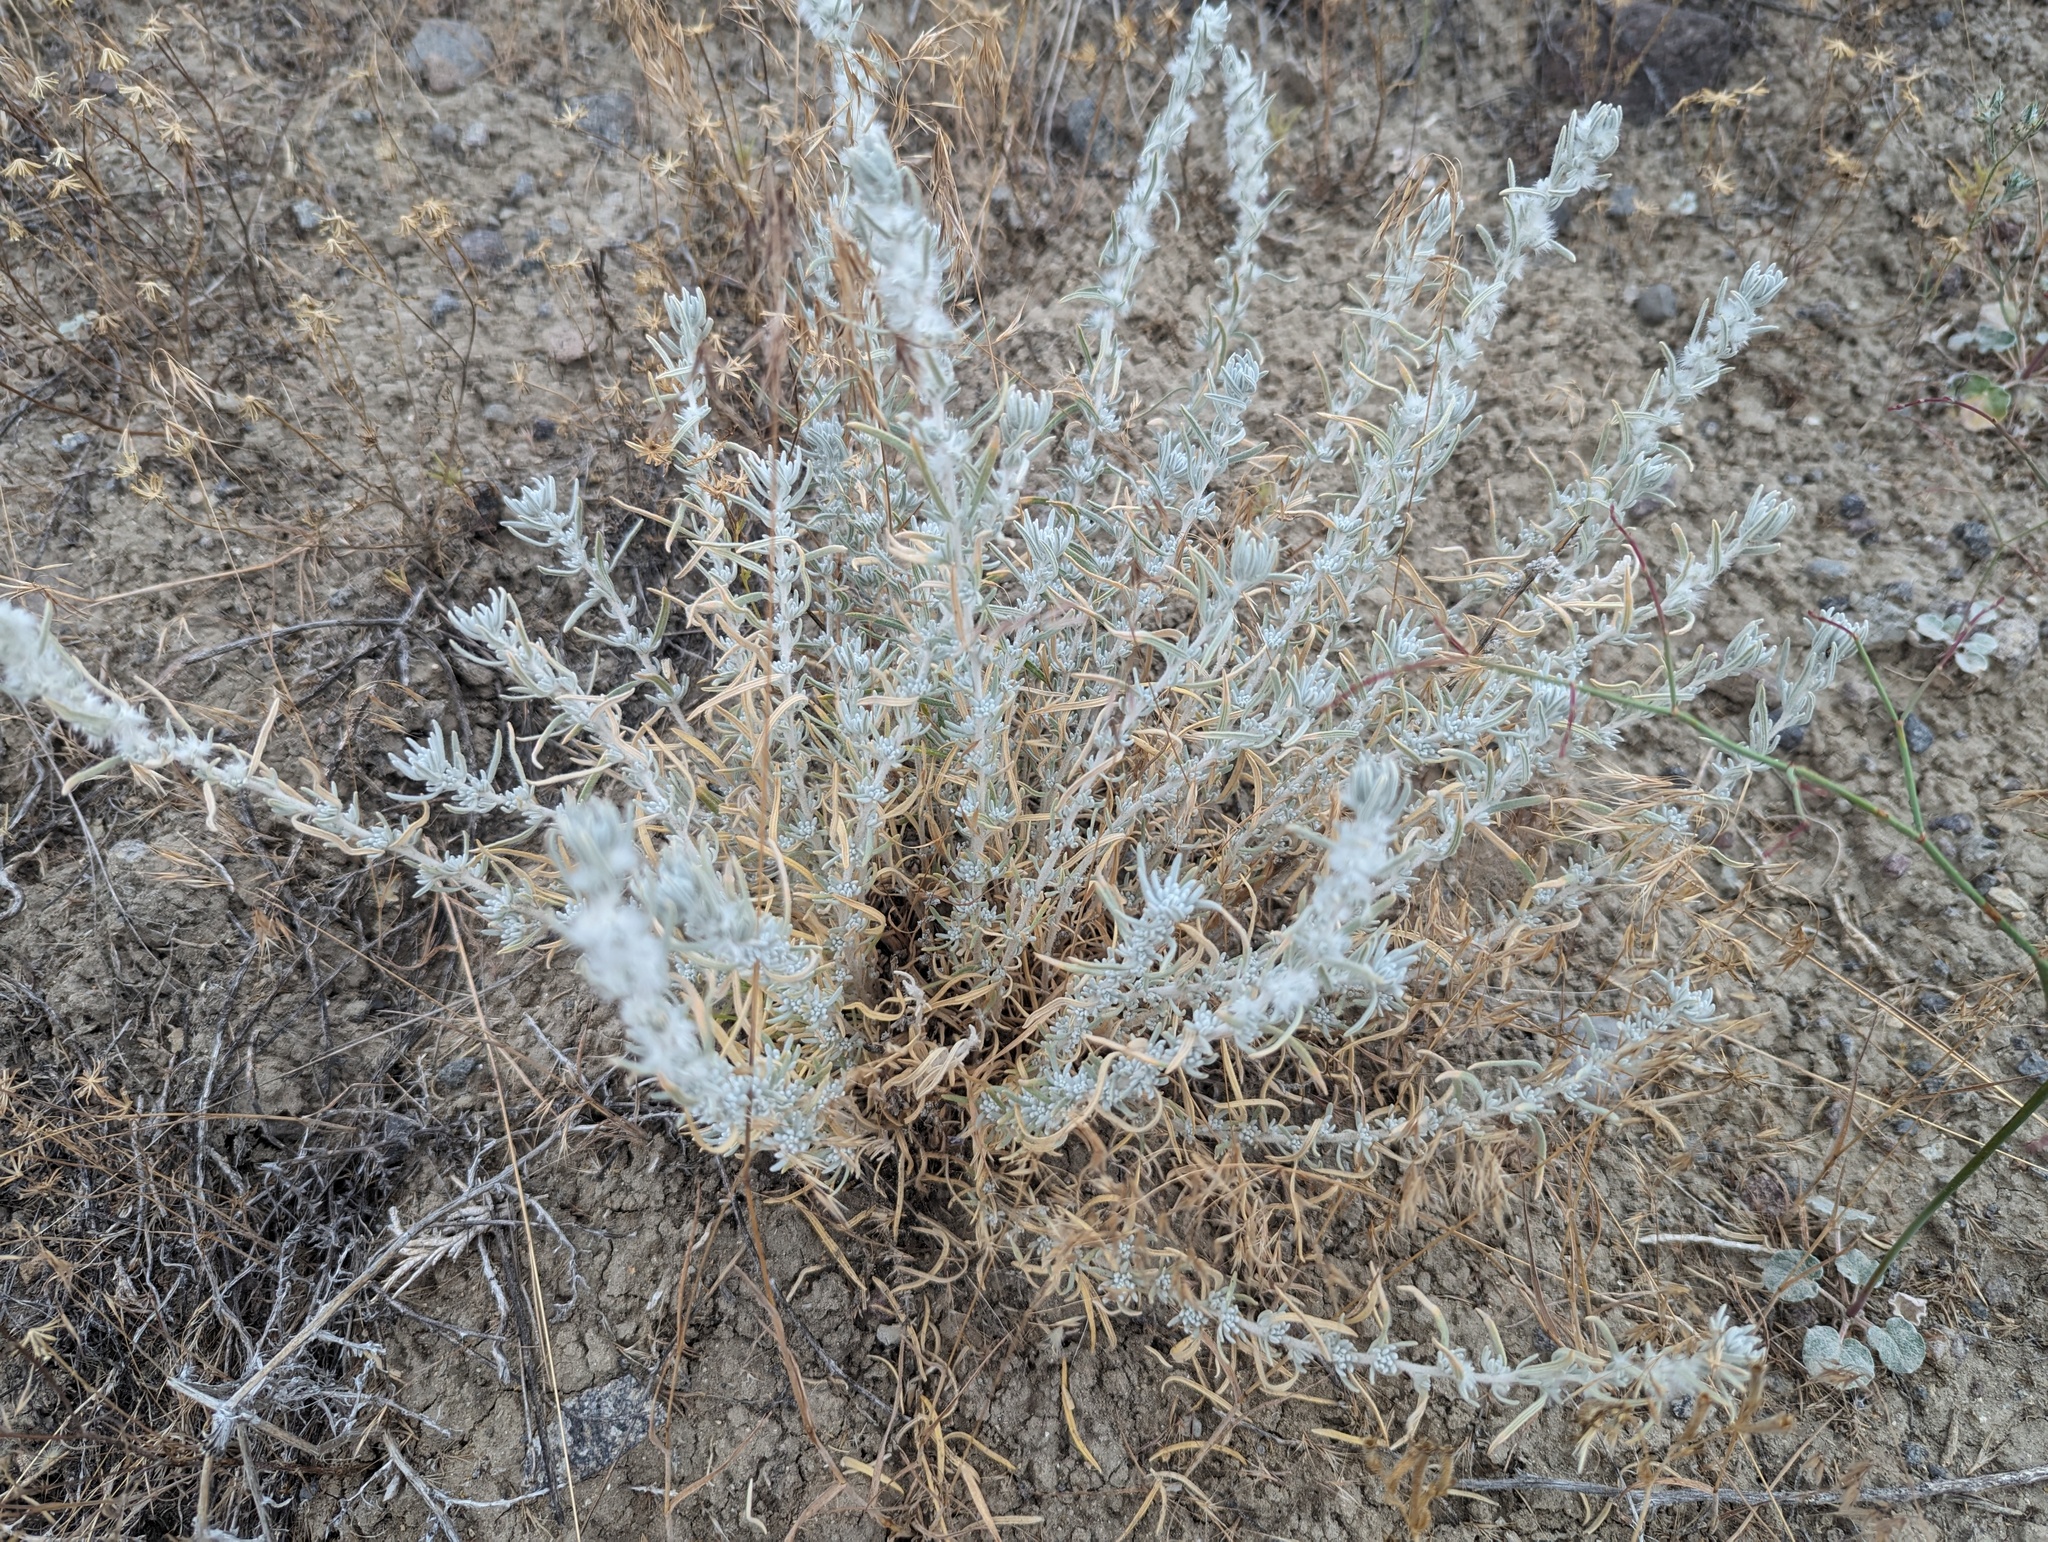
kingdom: Plantae
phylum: Tracheophyta
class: Magnoliopsida
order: Caryophyllales
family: Amaranthaceae
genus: Krascheninnikovia
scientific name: Krascheninnikovia lanata
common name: Winterfat
